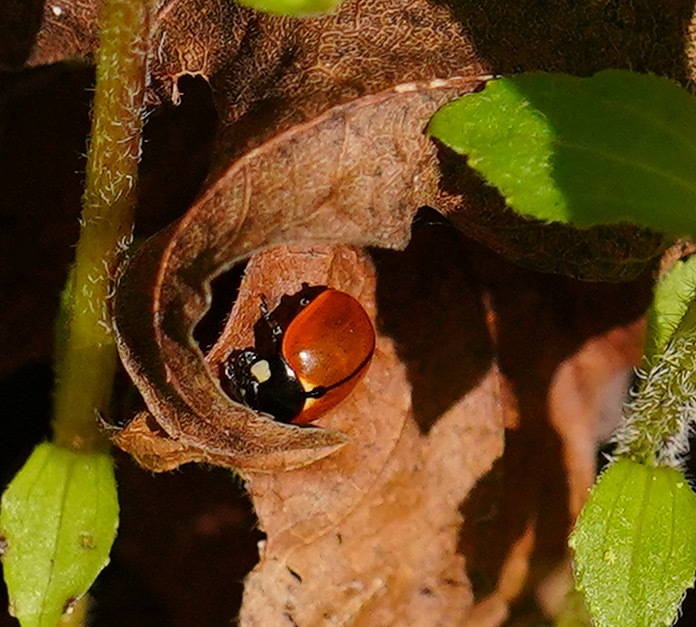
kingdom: Animalia
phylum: Arthropoda
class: Insecta
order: Coleoptera
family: Coccinellidae
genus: Coccinella
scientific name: Coccinella californica
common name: Lady beetle
